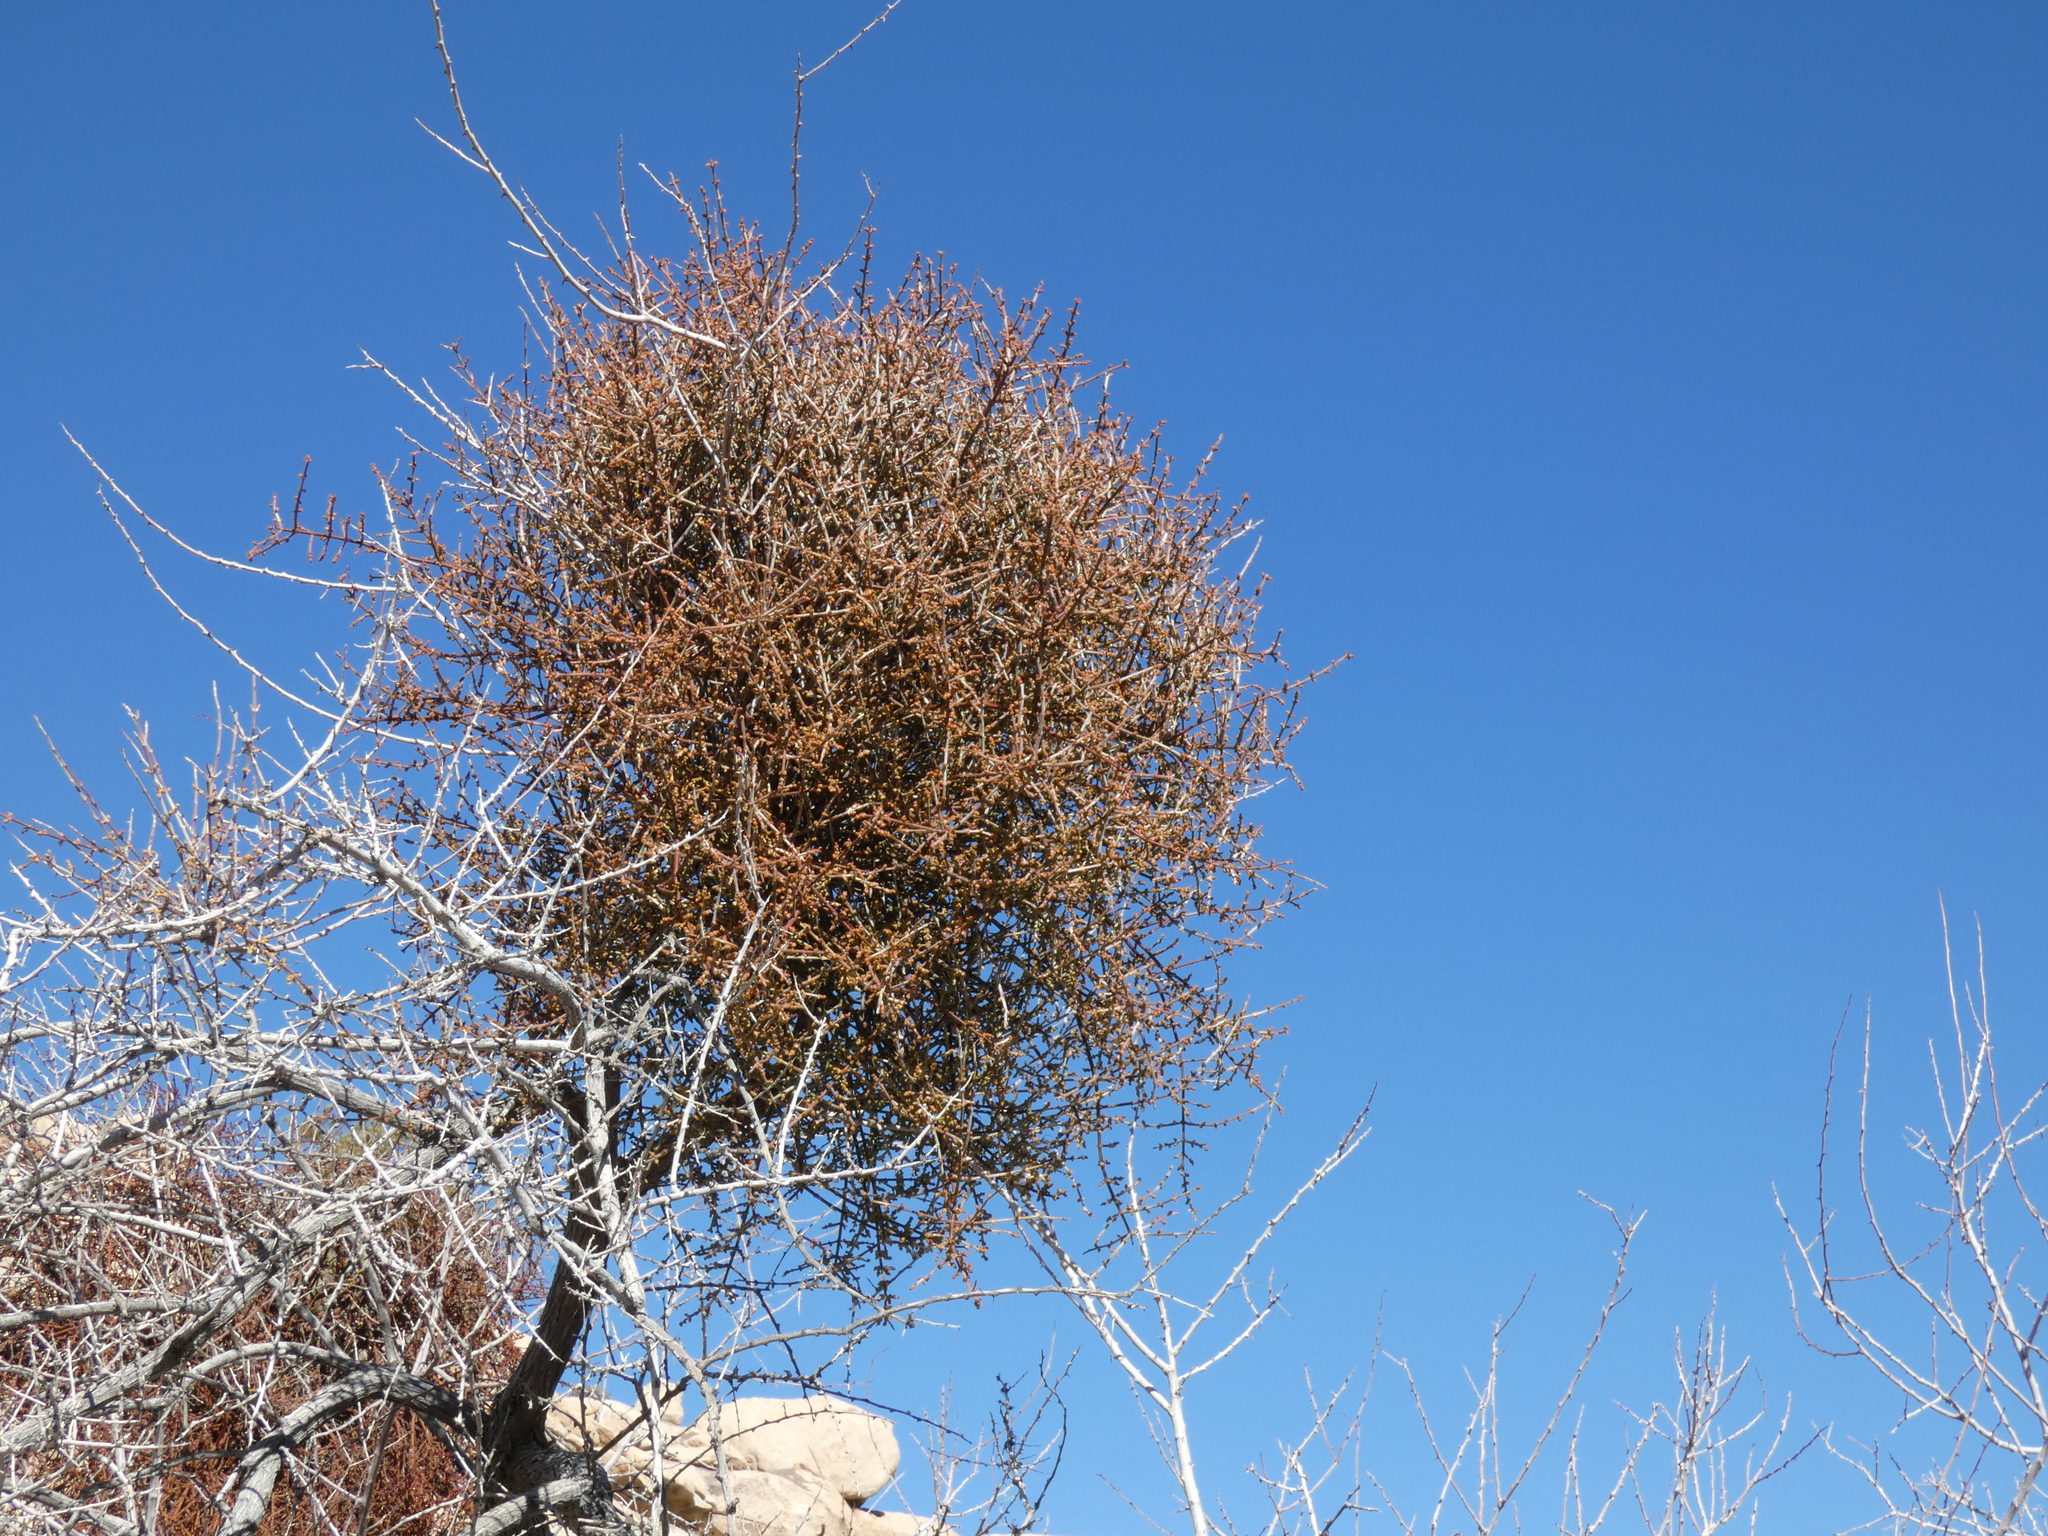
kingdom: Plantae
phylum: Tracheophyta
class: Magnoliopsida
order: Santalales
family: Viscaceae
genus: Phoradendron
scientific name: Phoradendron californicum
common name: Acacia mistletoe
